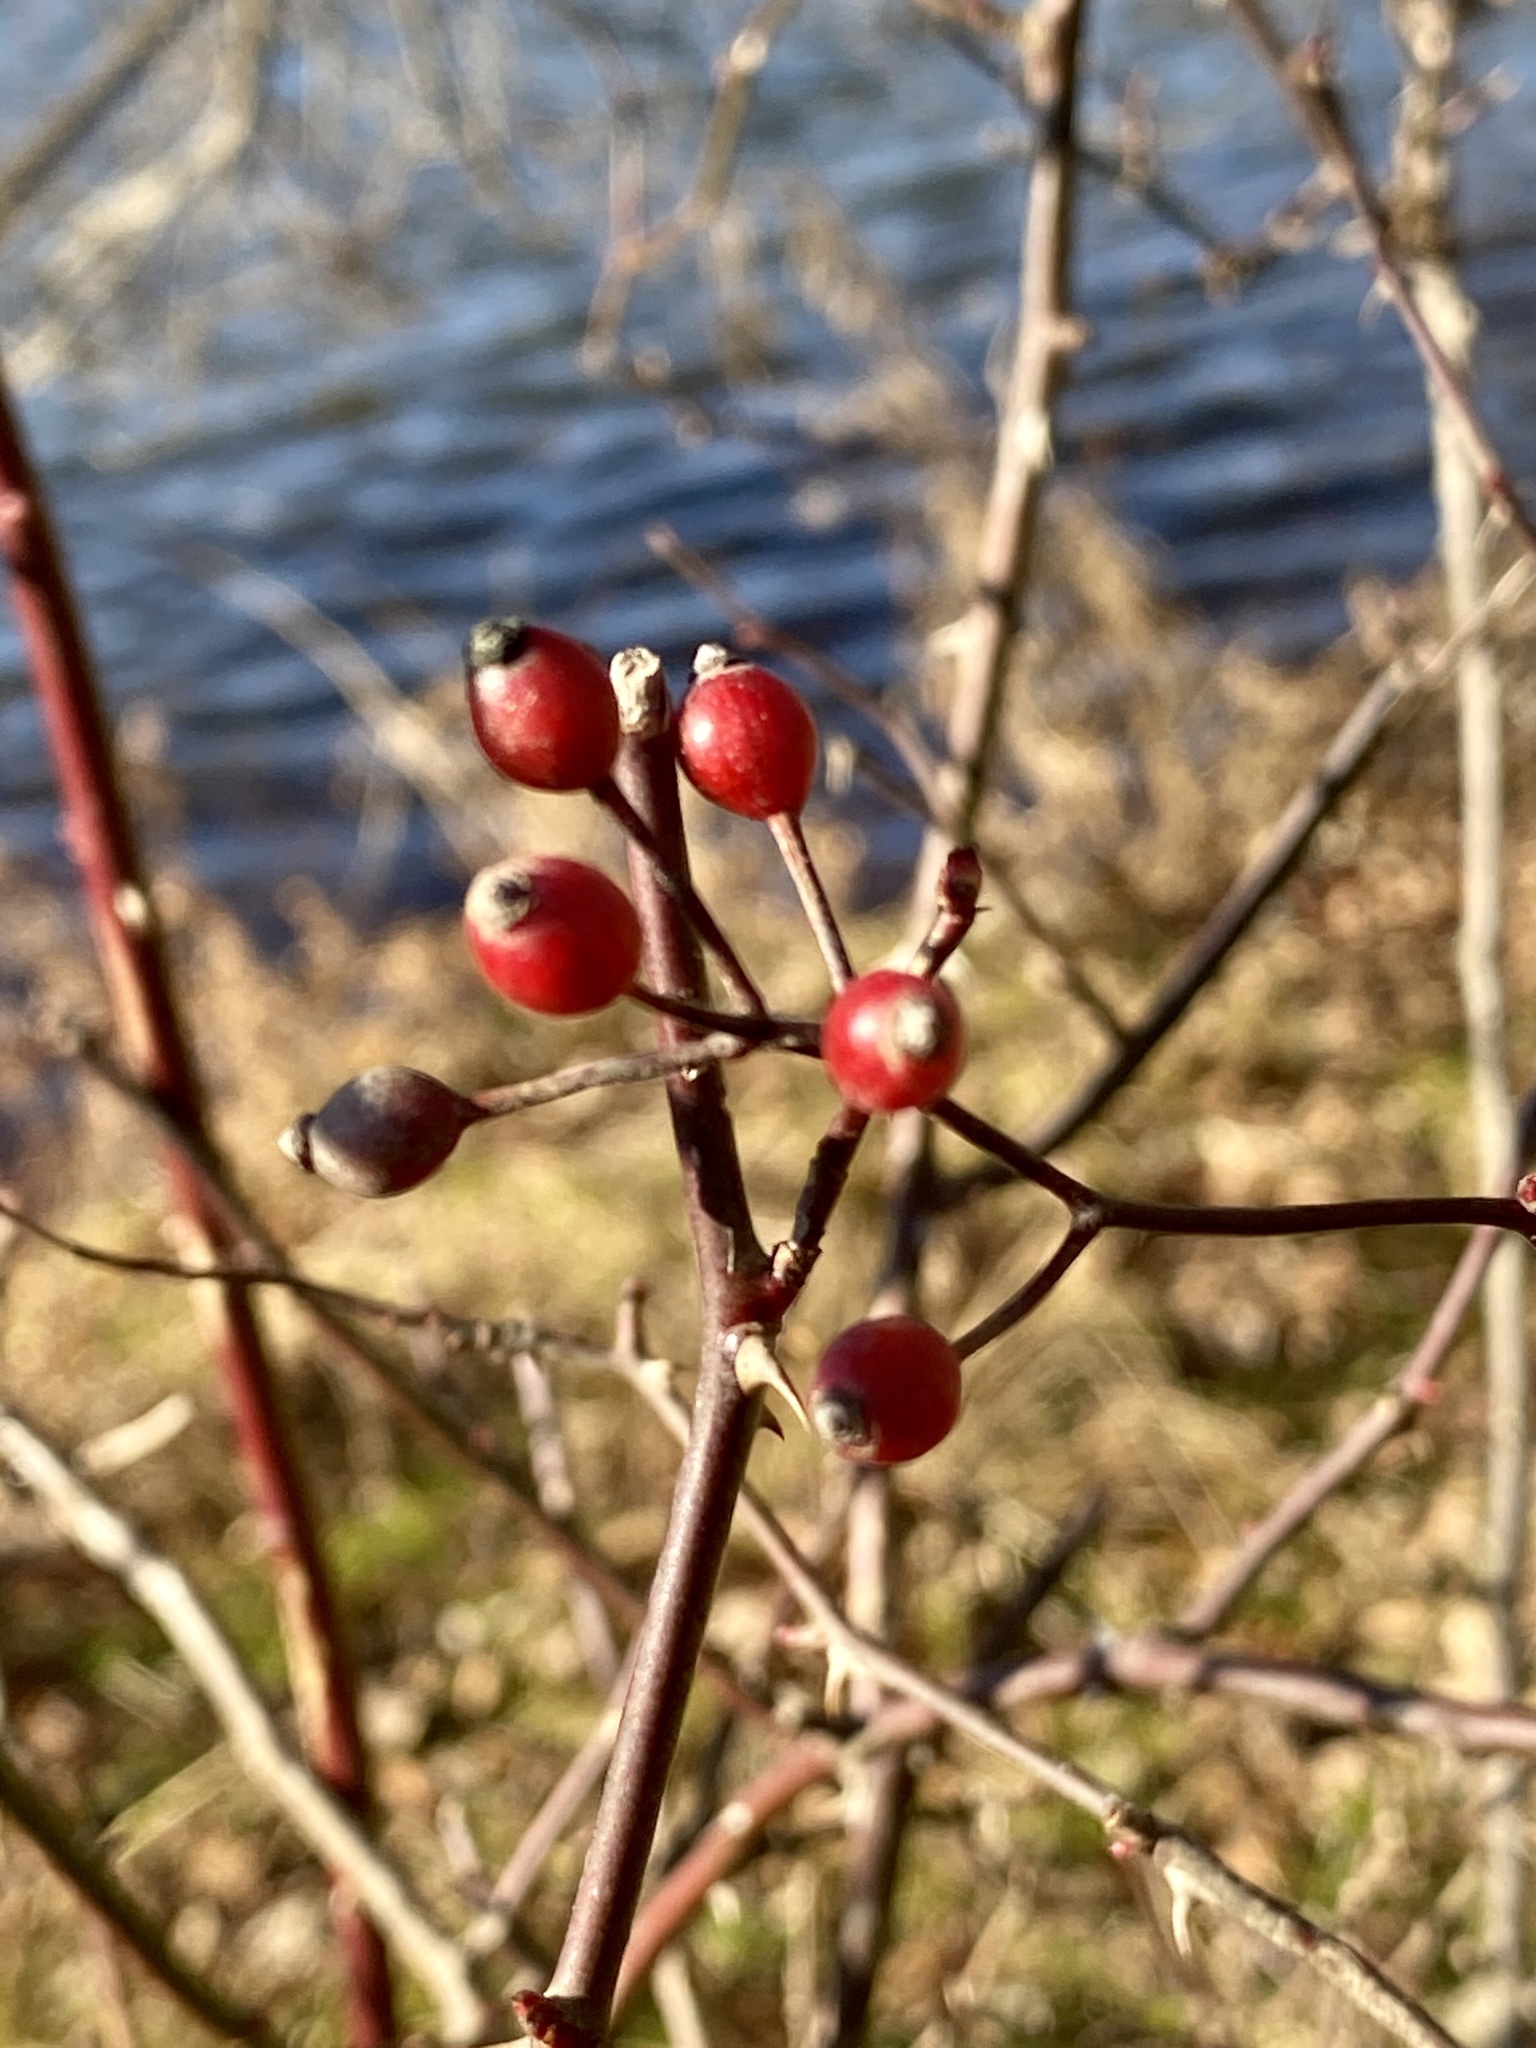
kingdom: Plantae
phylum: Tracheophyta
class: Magnoliopsida
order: Rosales
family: Rosaceae
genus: Rosa
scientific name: Rosa multiflora
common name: Multiflora rose
